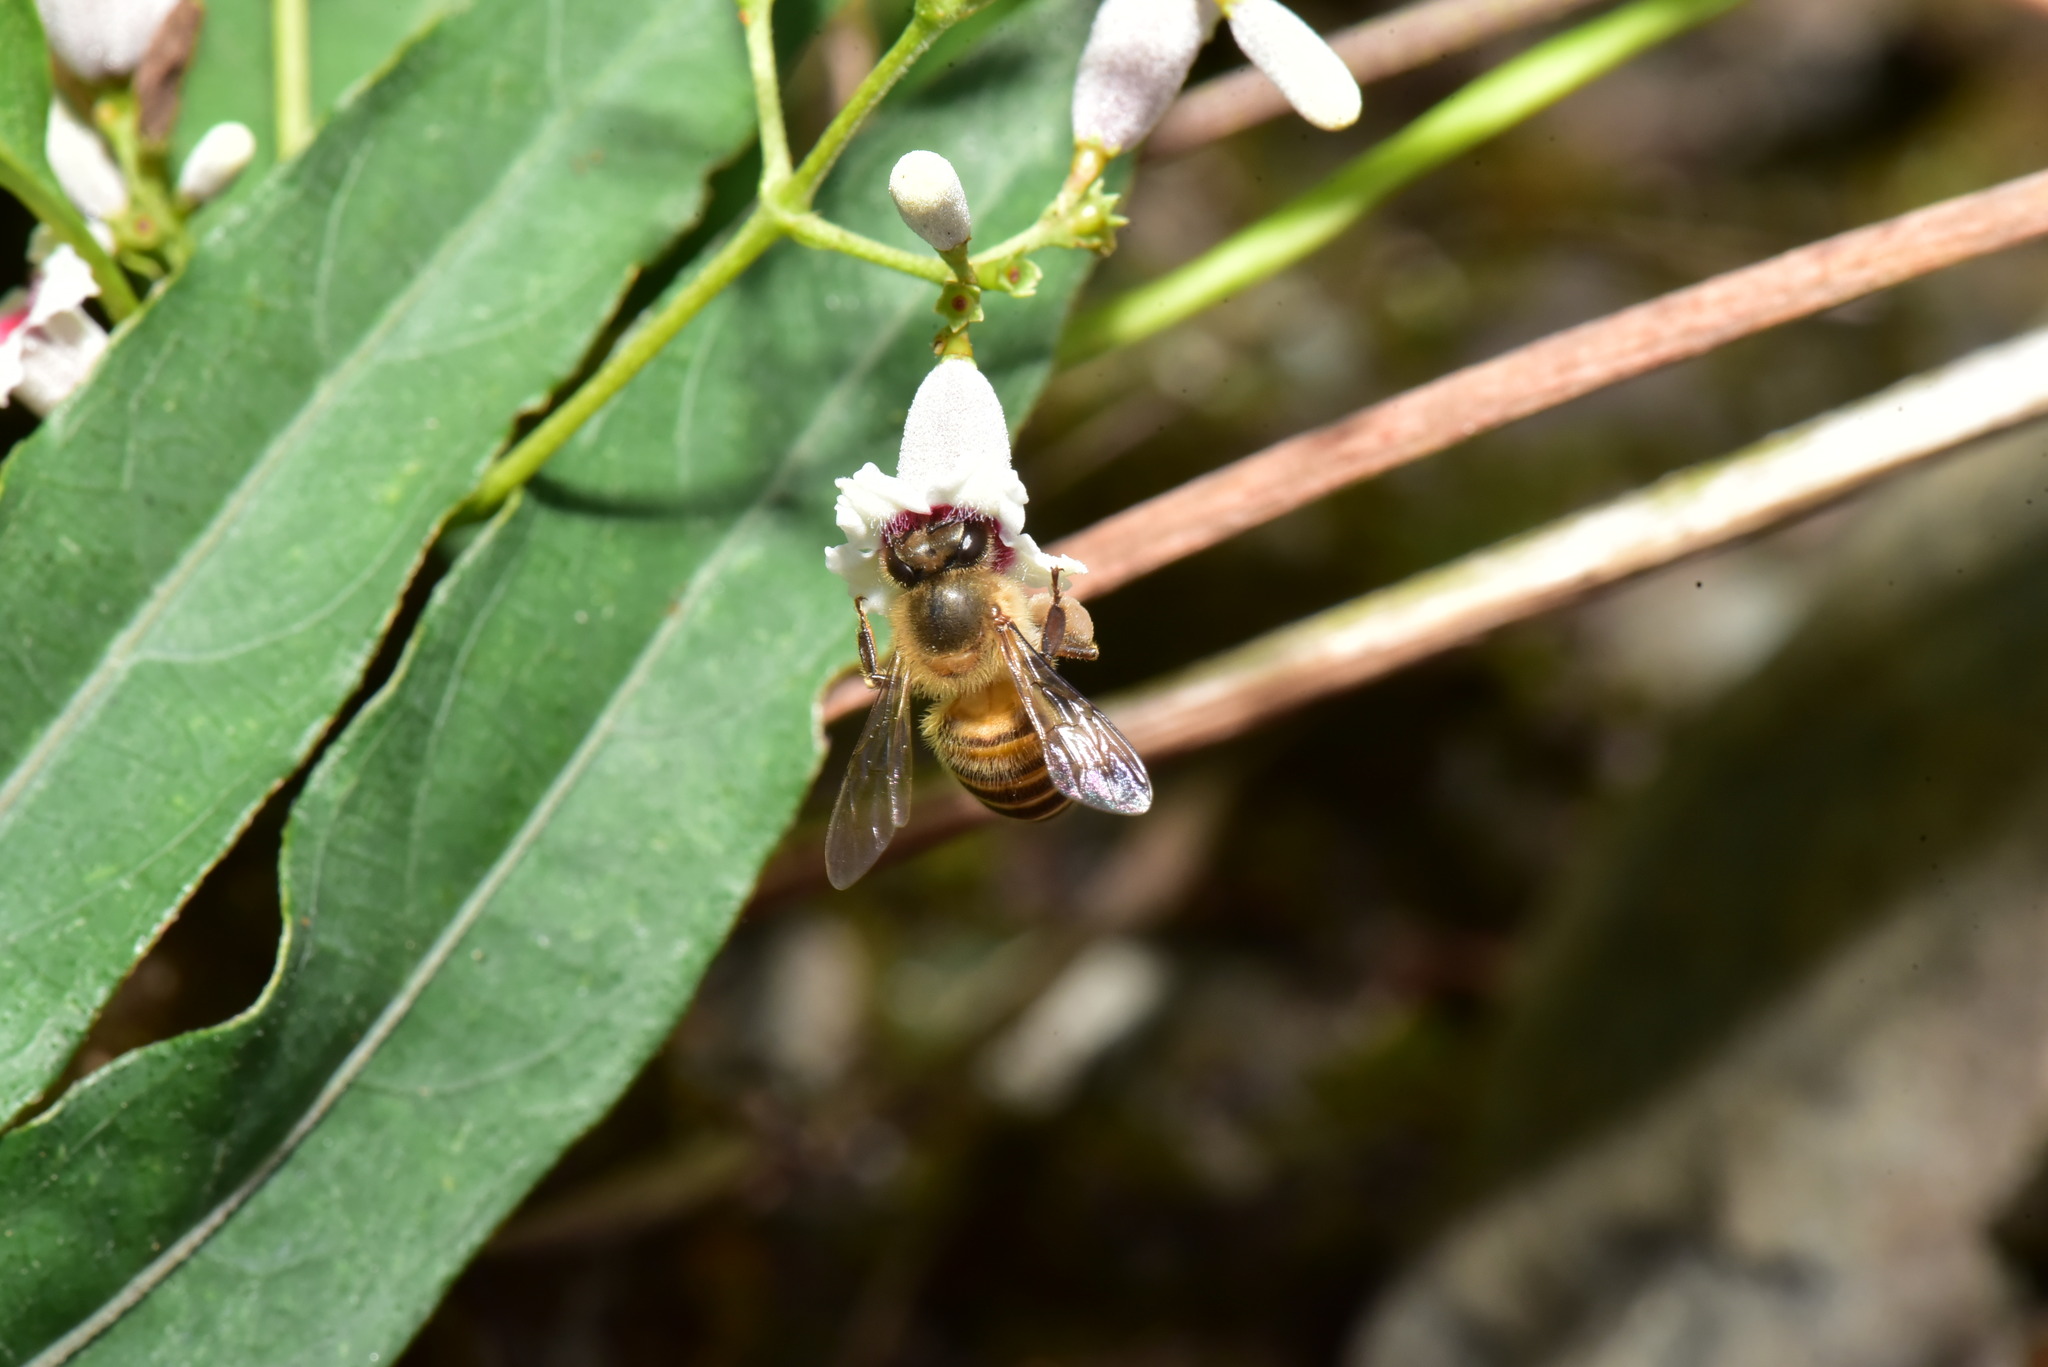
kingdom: Animalia
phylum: Arthropoda
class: Insecta
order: Hymenoptera
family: Apidae
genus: Apis
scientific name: Apis cerana
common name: Honey bee
